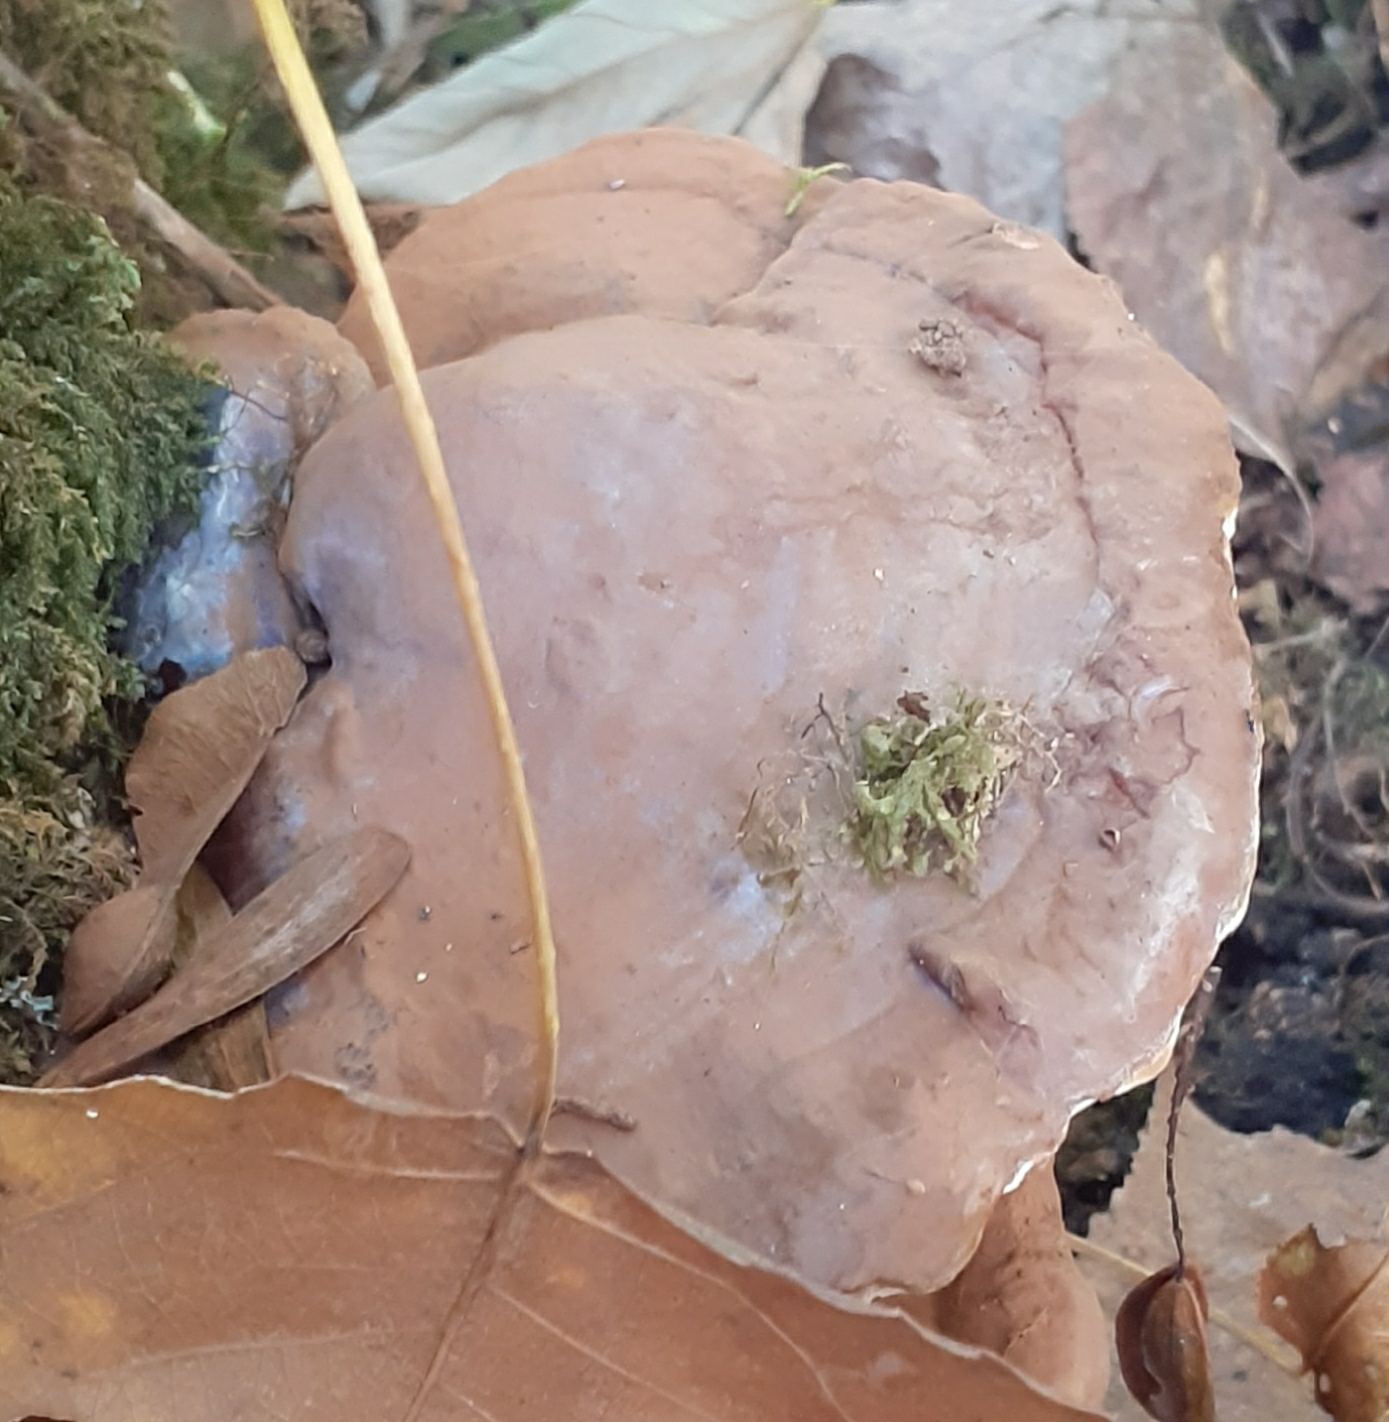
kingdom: Fungi
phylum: Basidiomycota
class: Agaricomycetes
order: Polyporales
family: Polyporaceae
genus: Ganoderma
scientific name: Ganoderma applanatum
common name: Artist's bracket
